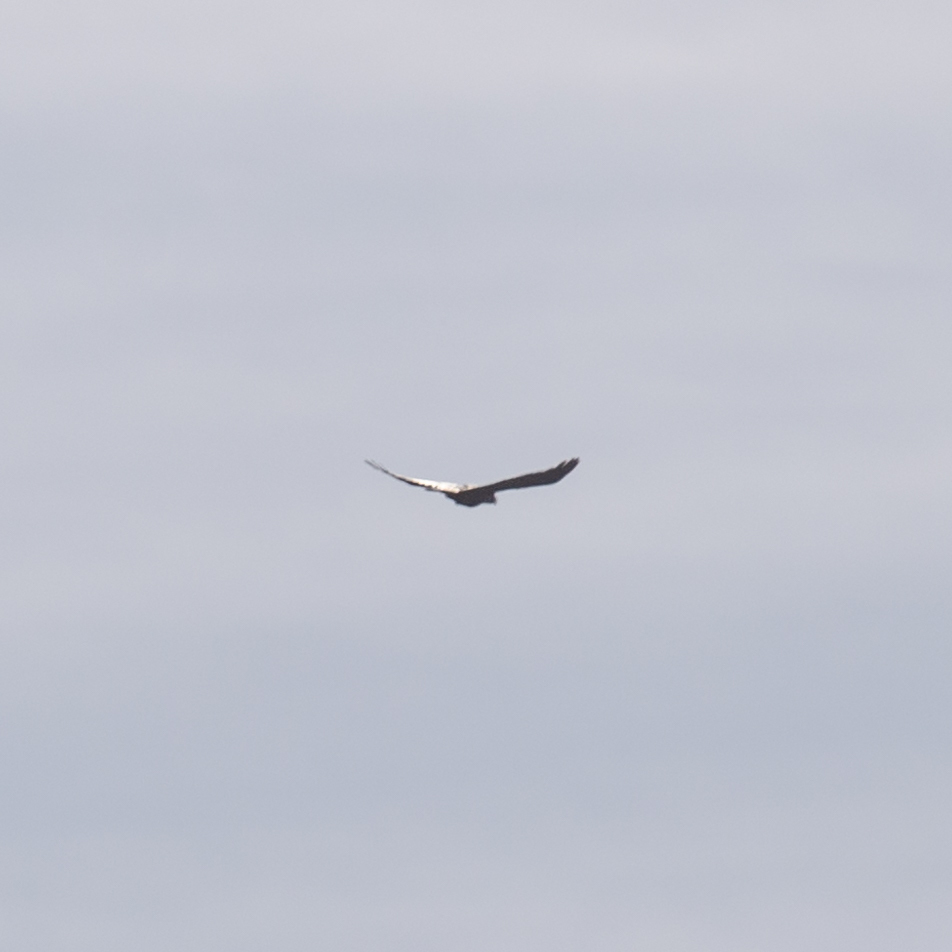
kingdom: Animalia
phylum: Chordata
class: Aves
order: Passeriformes
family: Corvidae
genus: Corvus
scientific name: Corvus corax
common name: Common raven
